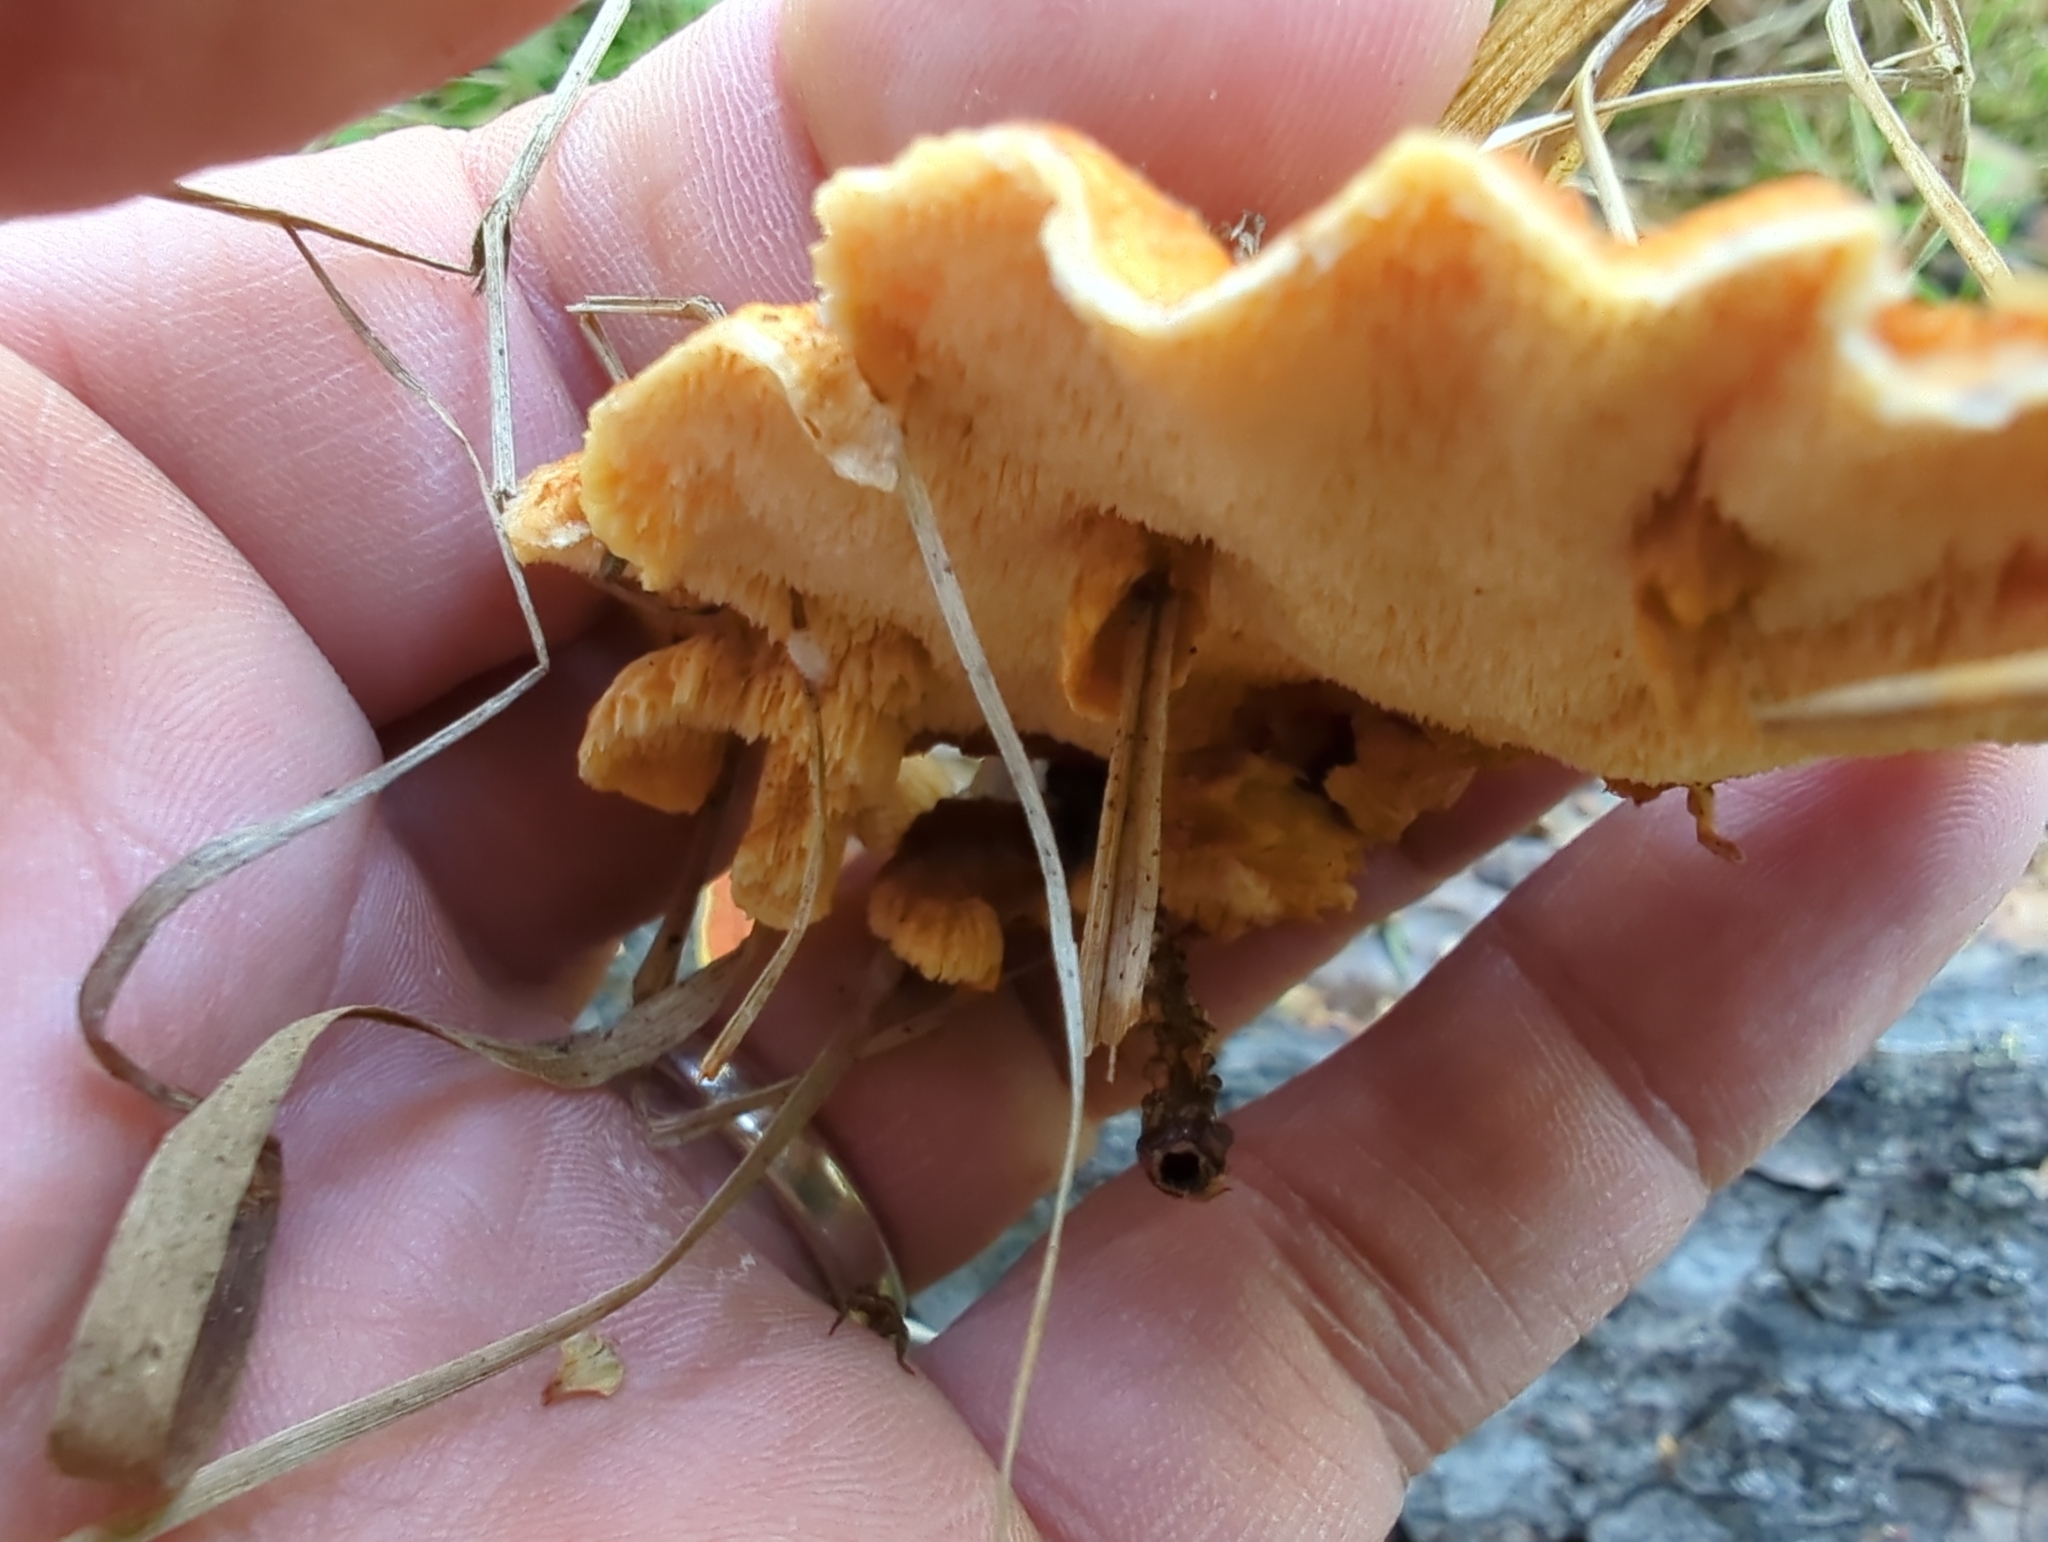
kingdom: Fungi
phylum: Basidiomycota
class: Agaricomycetes
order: Polyporales
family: Pycnoporellaceae
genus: Pycnoporellus
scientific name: Pycnoporellus fulgens
